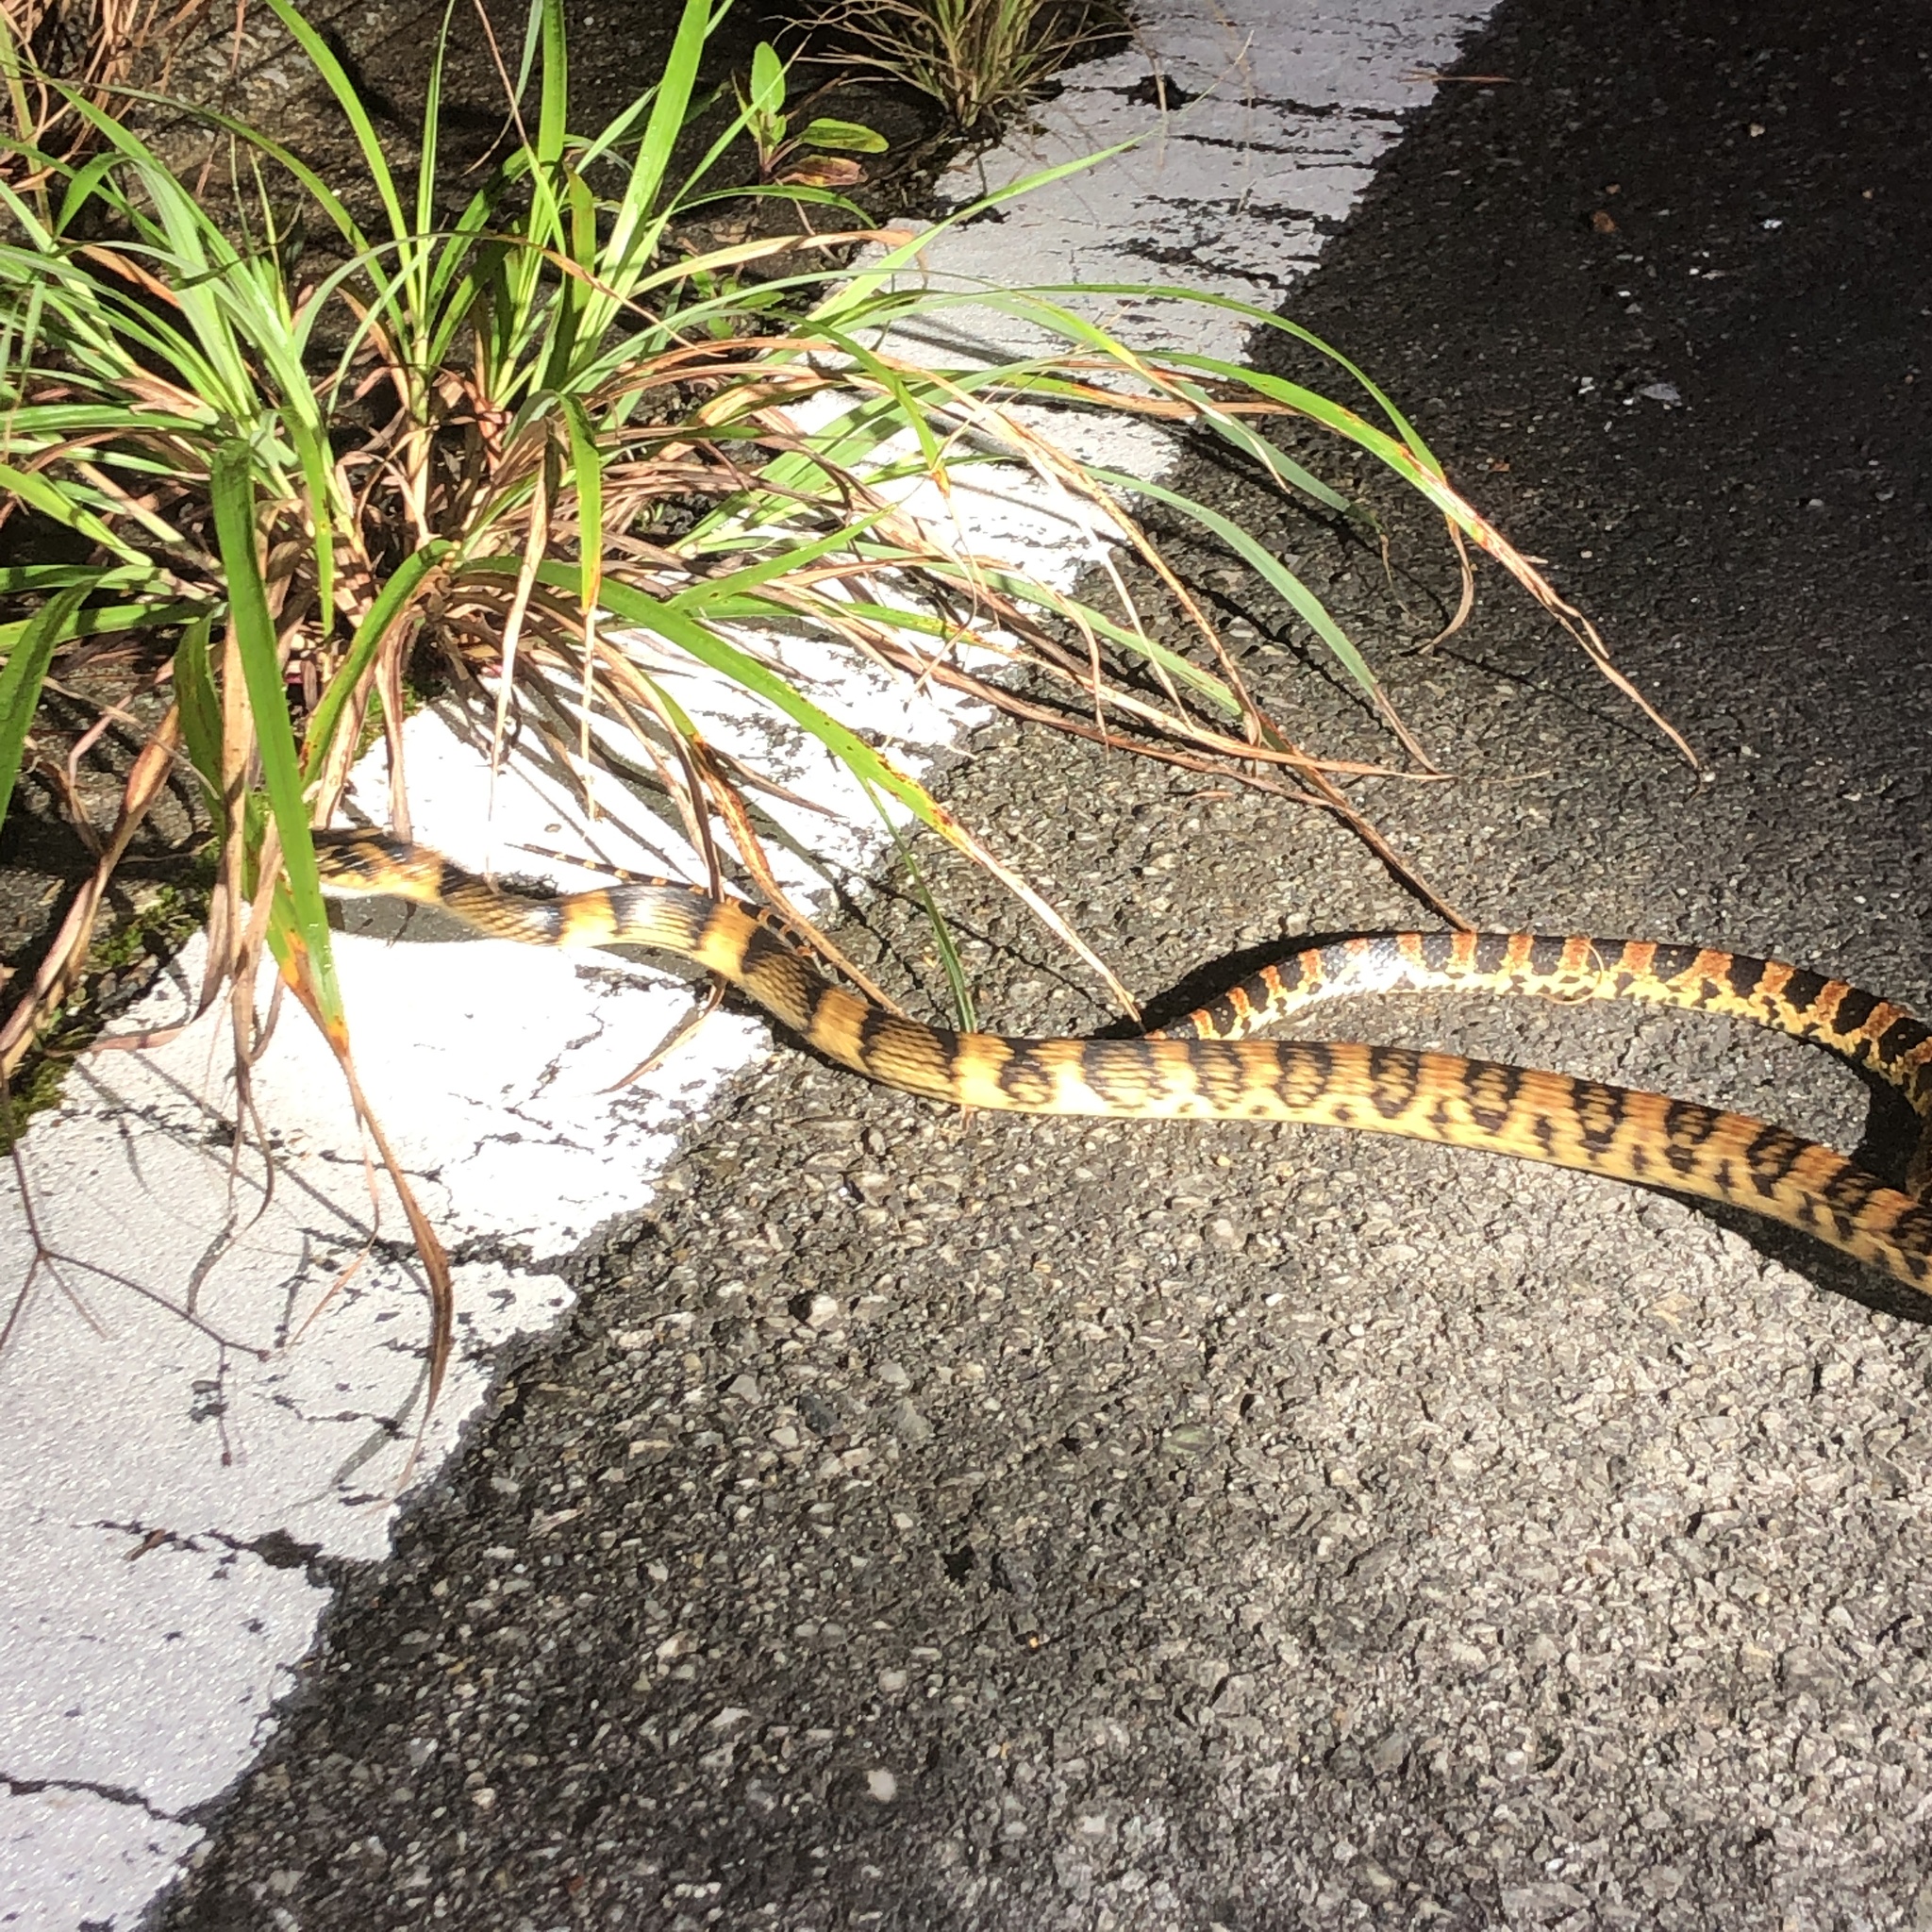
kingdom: Animalia
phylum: Chordata
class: Squamata
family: Colubridae
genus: Lycodon
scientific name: Lycodon semicarinatus
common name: Loo-choo big-tooth snake
